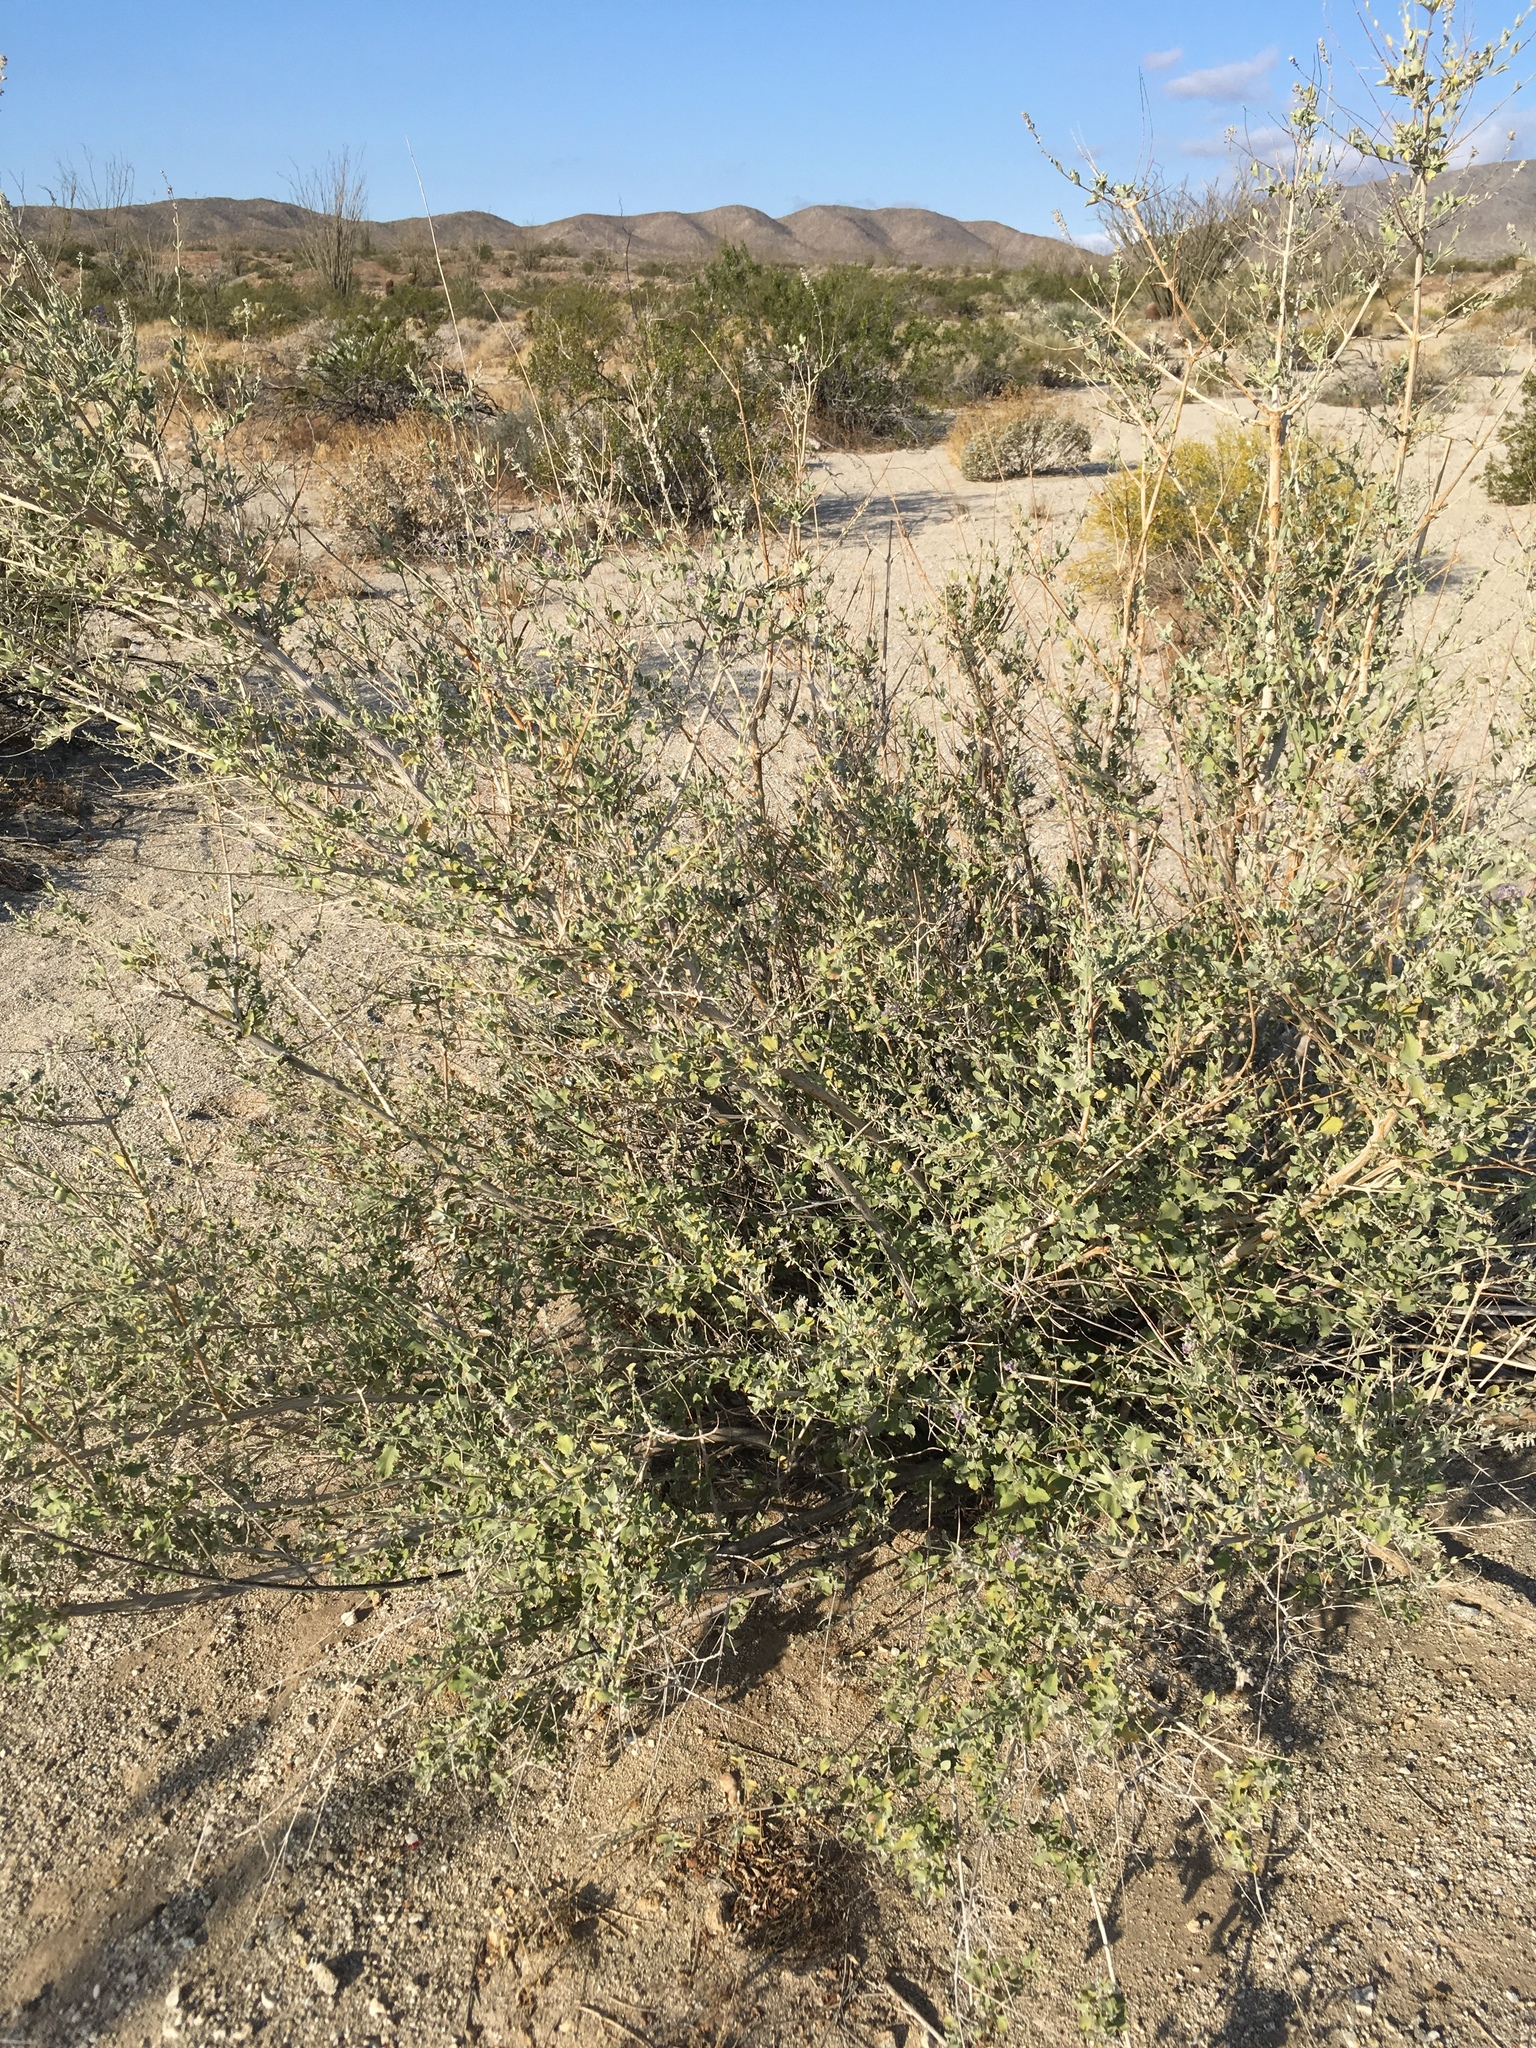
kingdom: Plantae
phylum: Tracheophyta
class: Magnoliopsida
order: Lamiales
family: Lamiaceae
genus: Condea
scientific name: Condea emoryi
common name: Chia
